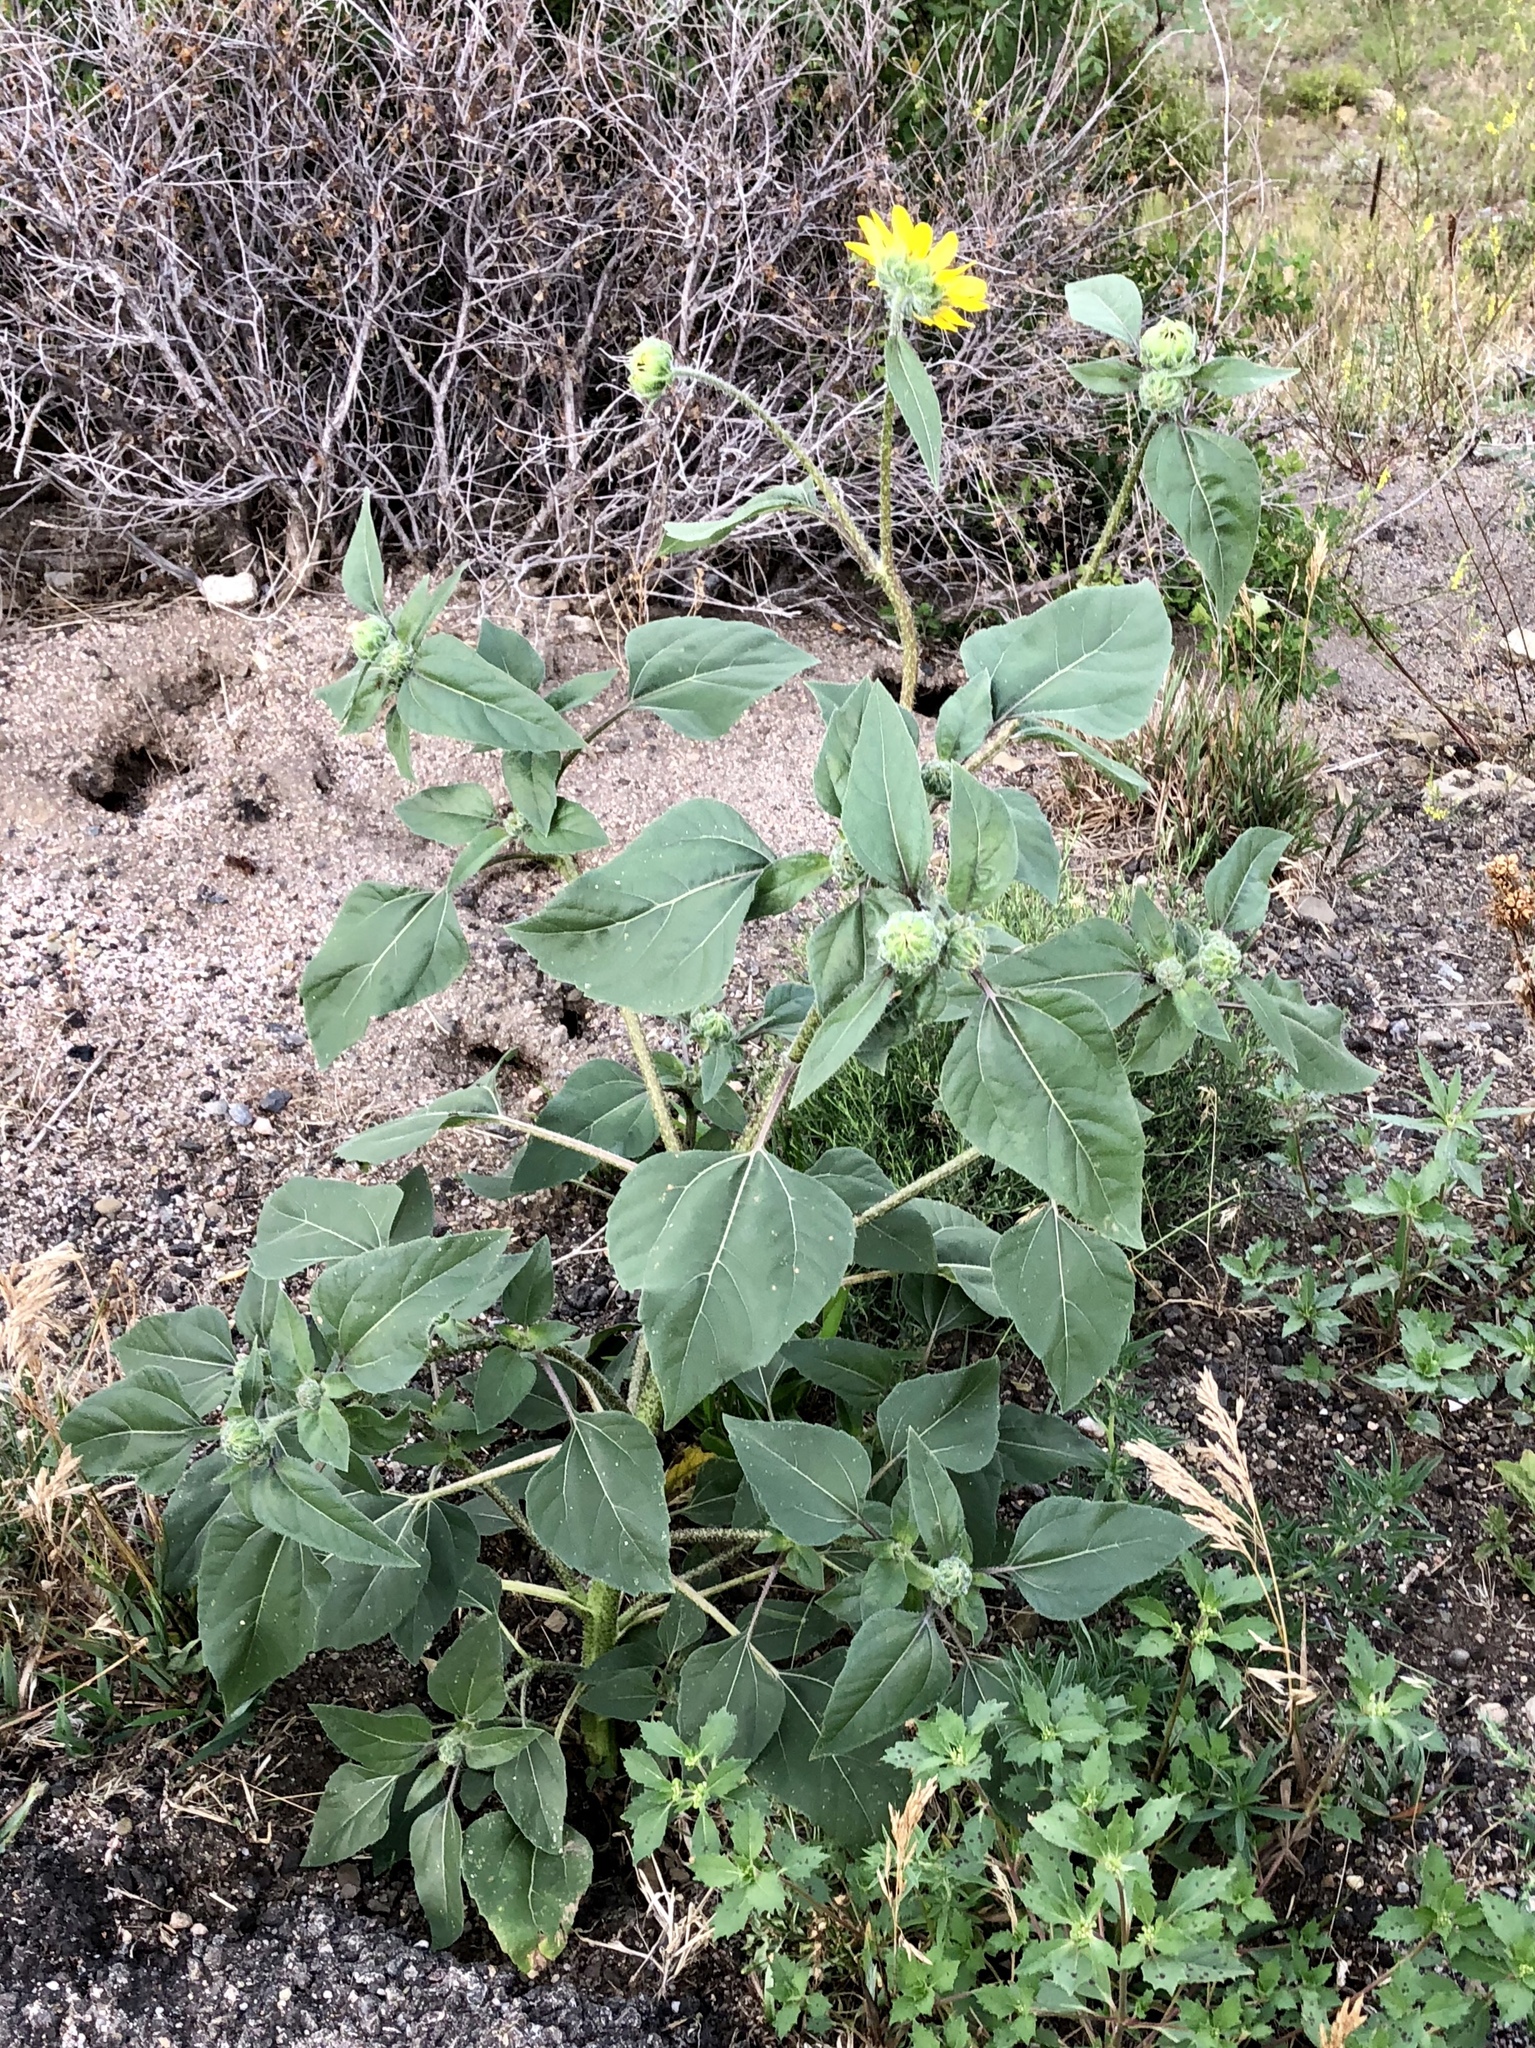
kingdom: Plantae
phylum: Tracheophyta
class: Magnoliopsida
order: Asterales
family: Asteraceae
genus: Helianthus
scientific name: Helianthus annuus
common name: Sunflower
